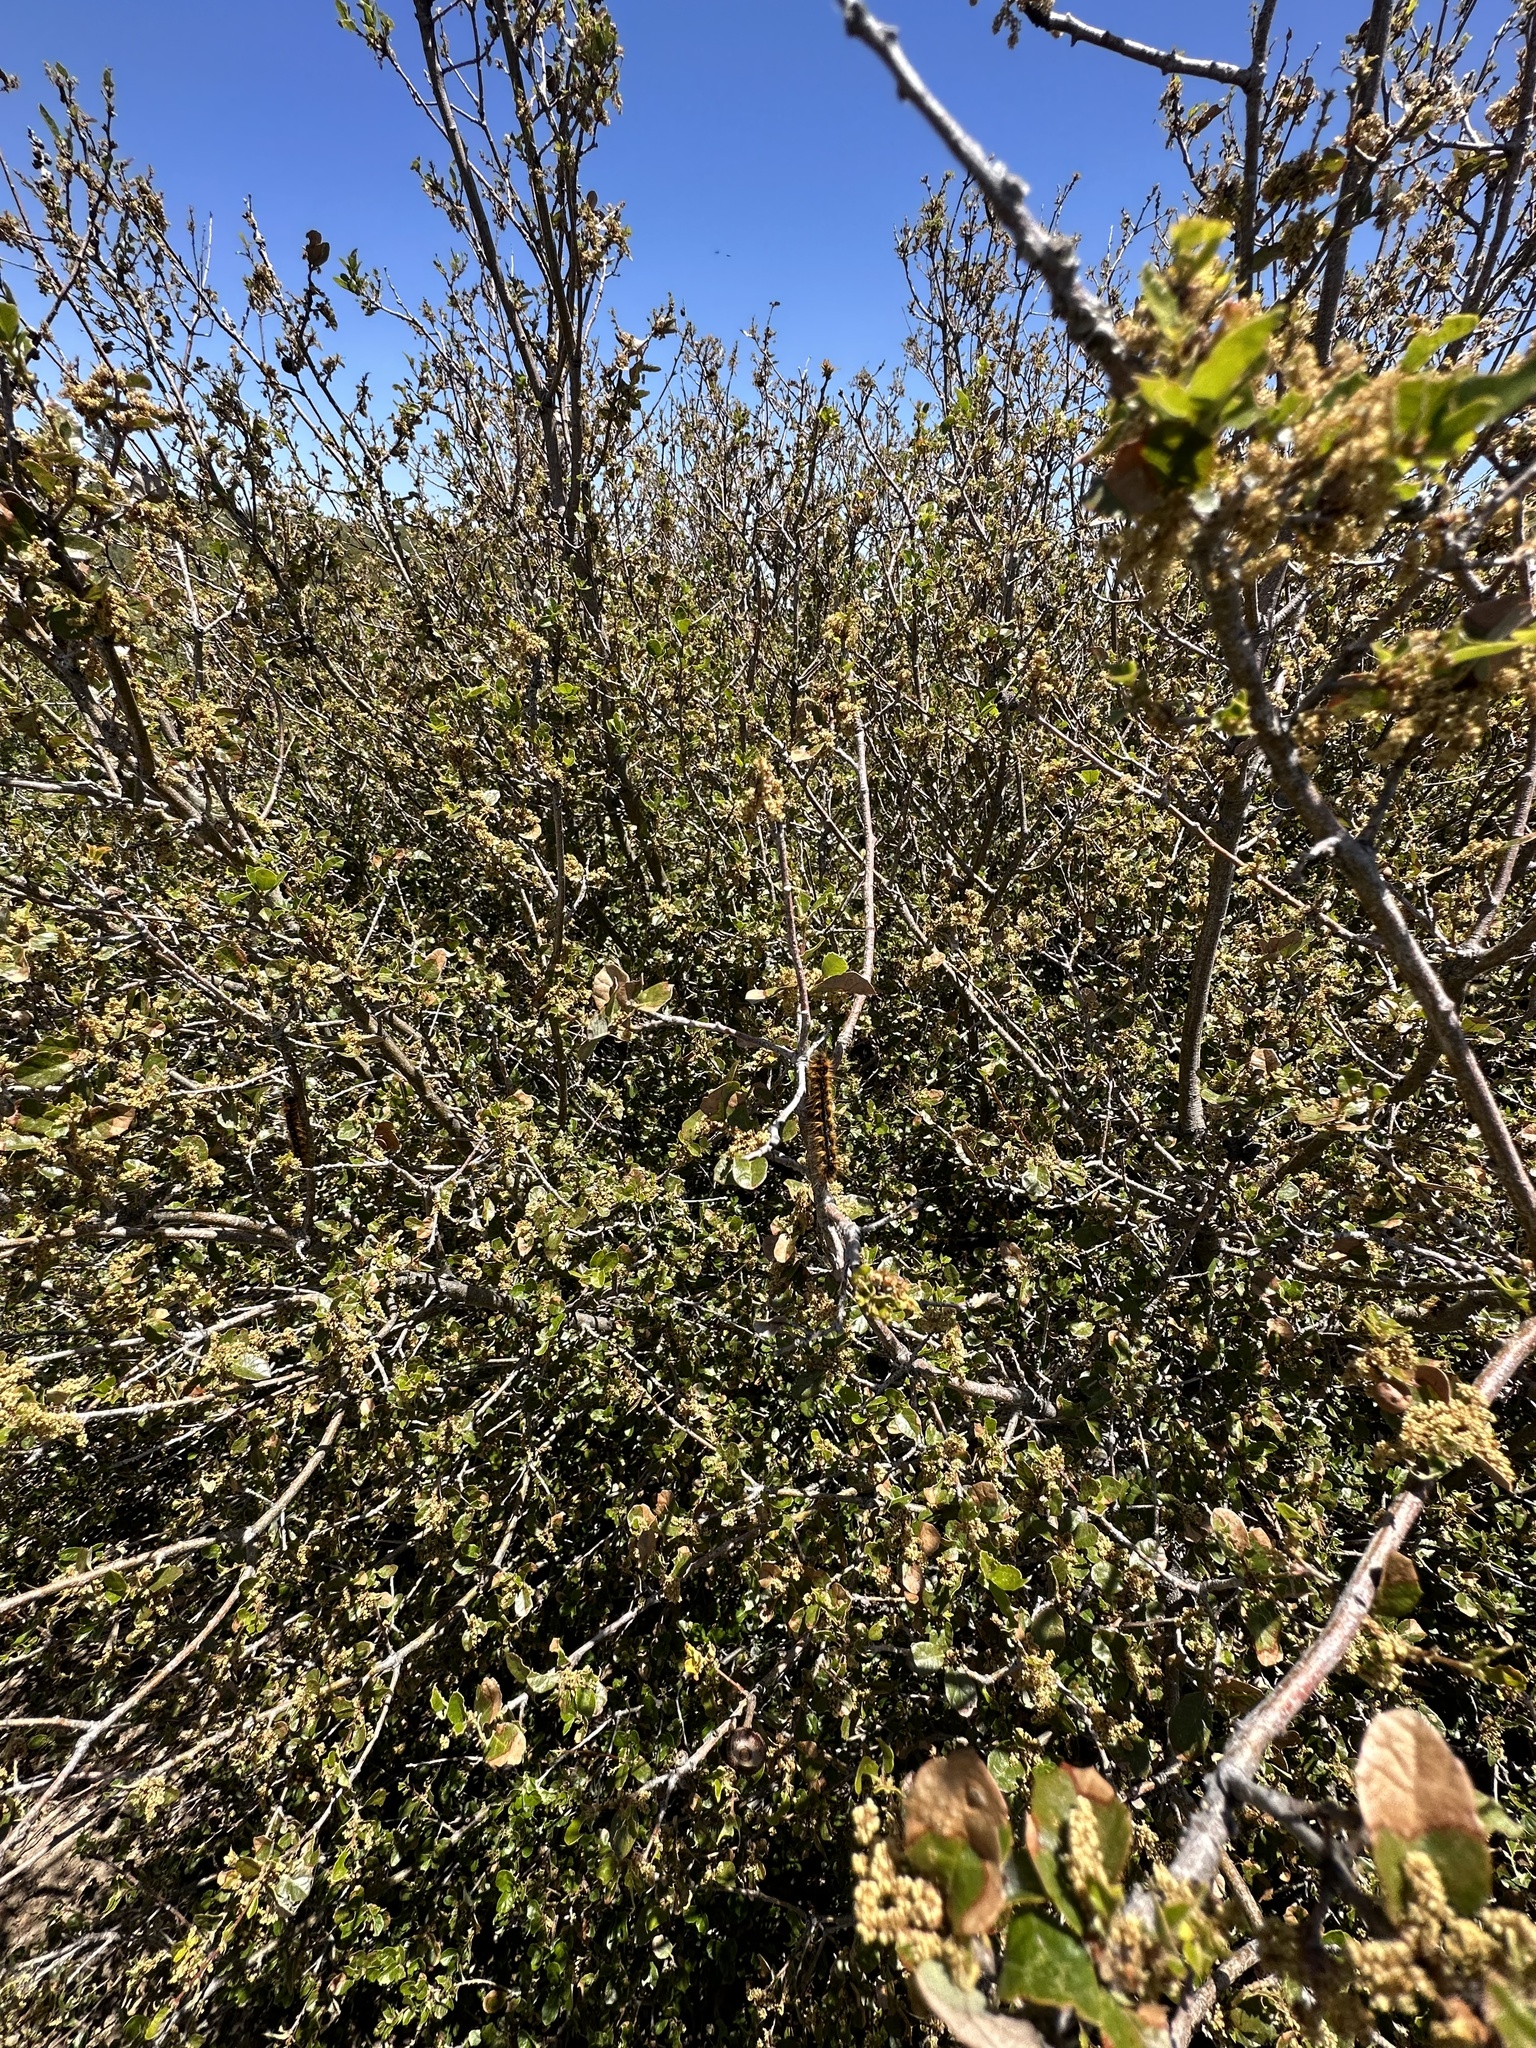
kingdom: Animalia
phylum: Arthropoda
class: Insecta
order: Lepidoptera
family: Lasiocampidae
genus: Malacosoma
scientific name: Malacosoma constricta
